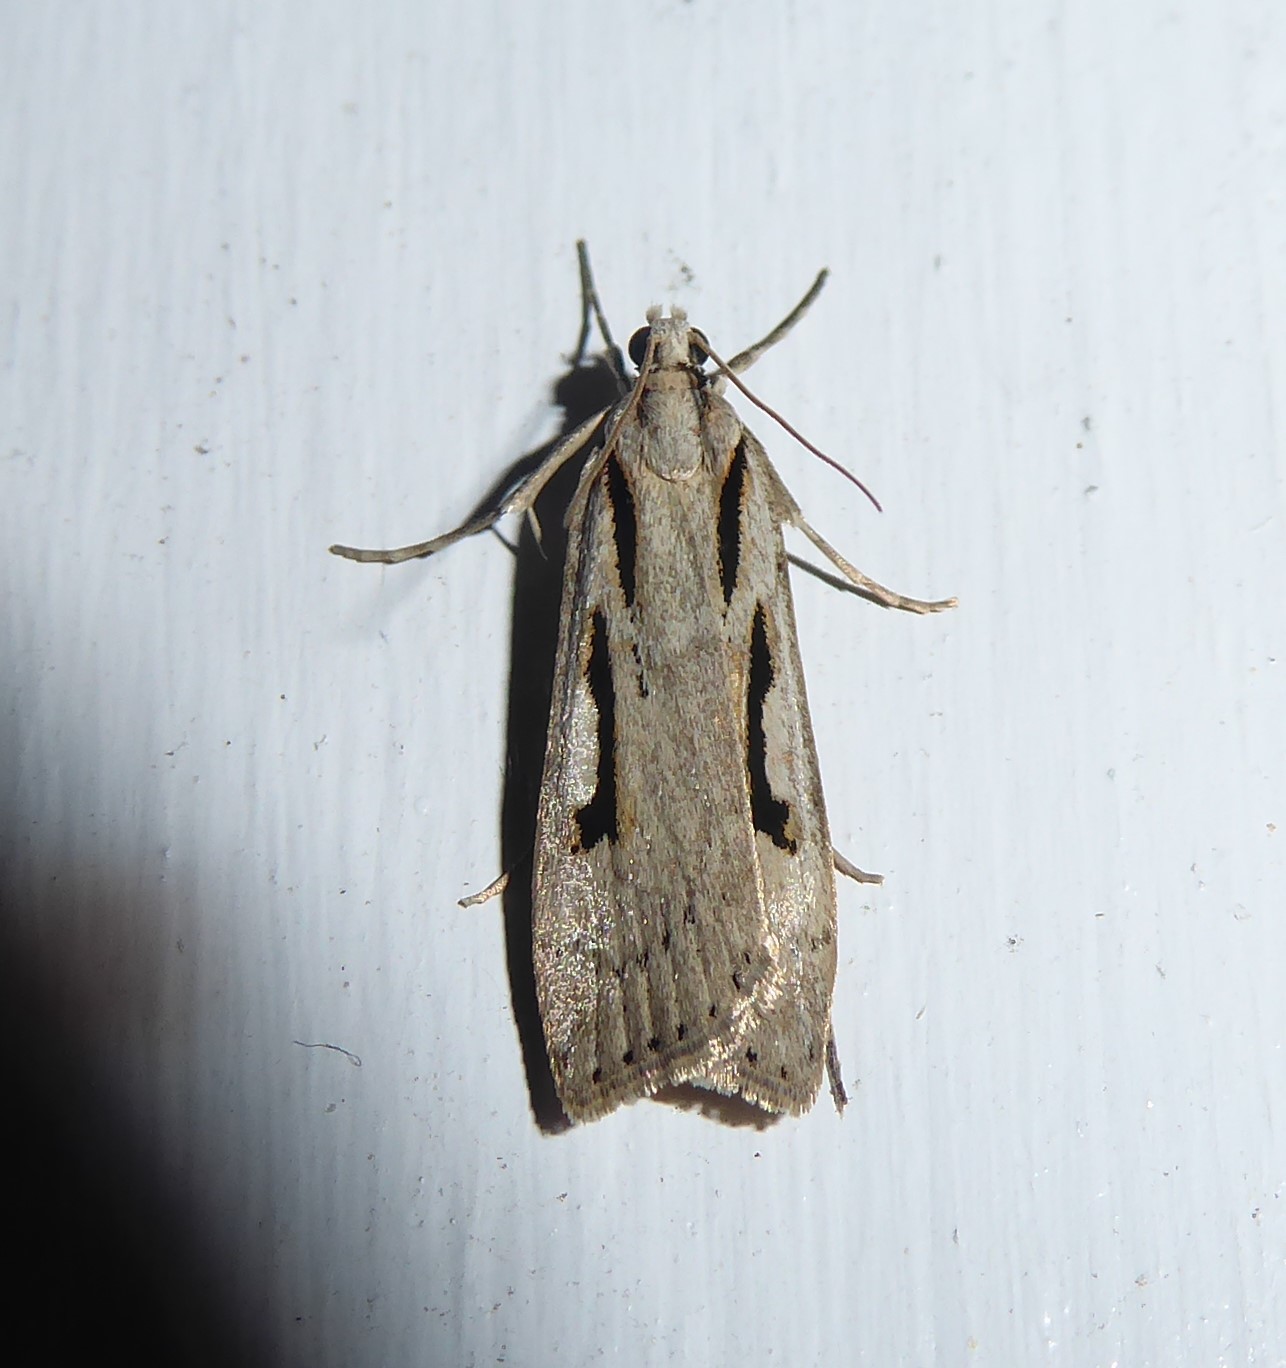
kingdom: Animalia
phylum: Arthropoda
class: Insecta
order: Lepidoptera
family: Crambidae
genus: Scoparia
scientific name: Scoparia rotuellus
